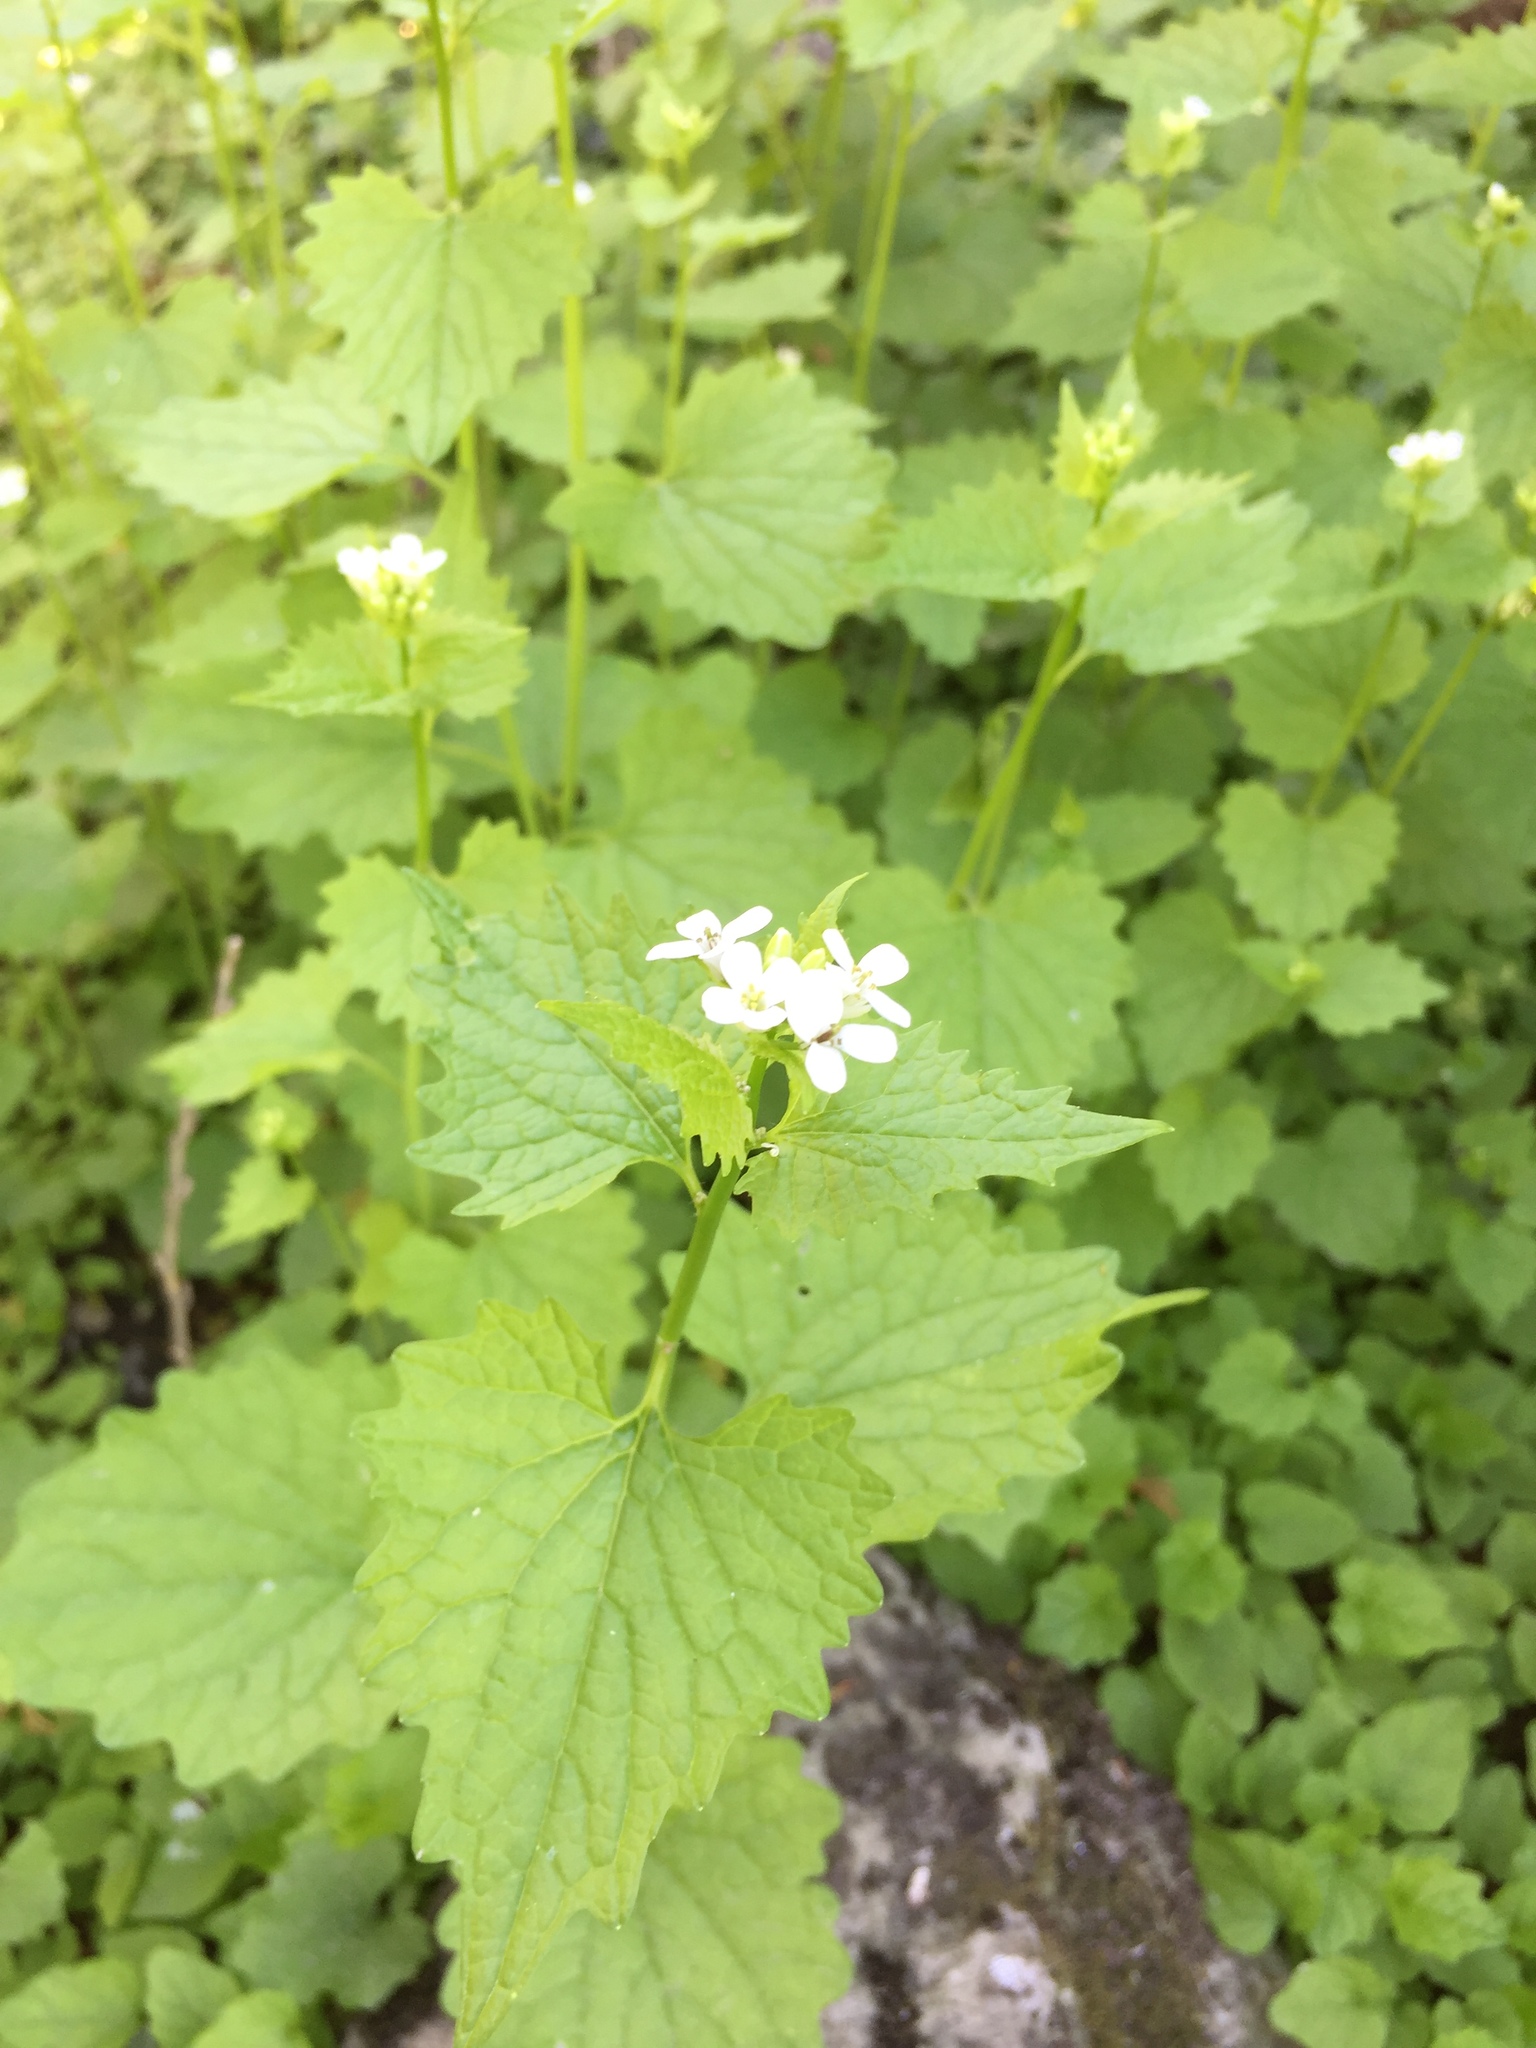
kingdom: Plantae
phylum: Tracheophyta
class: Magnoliopsida
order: Brassicales
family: Brassicaceae
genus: Alliaria
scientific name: Alliaria petiolata
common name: Garlic mustard
